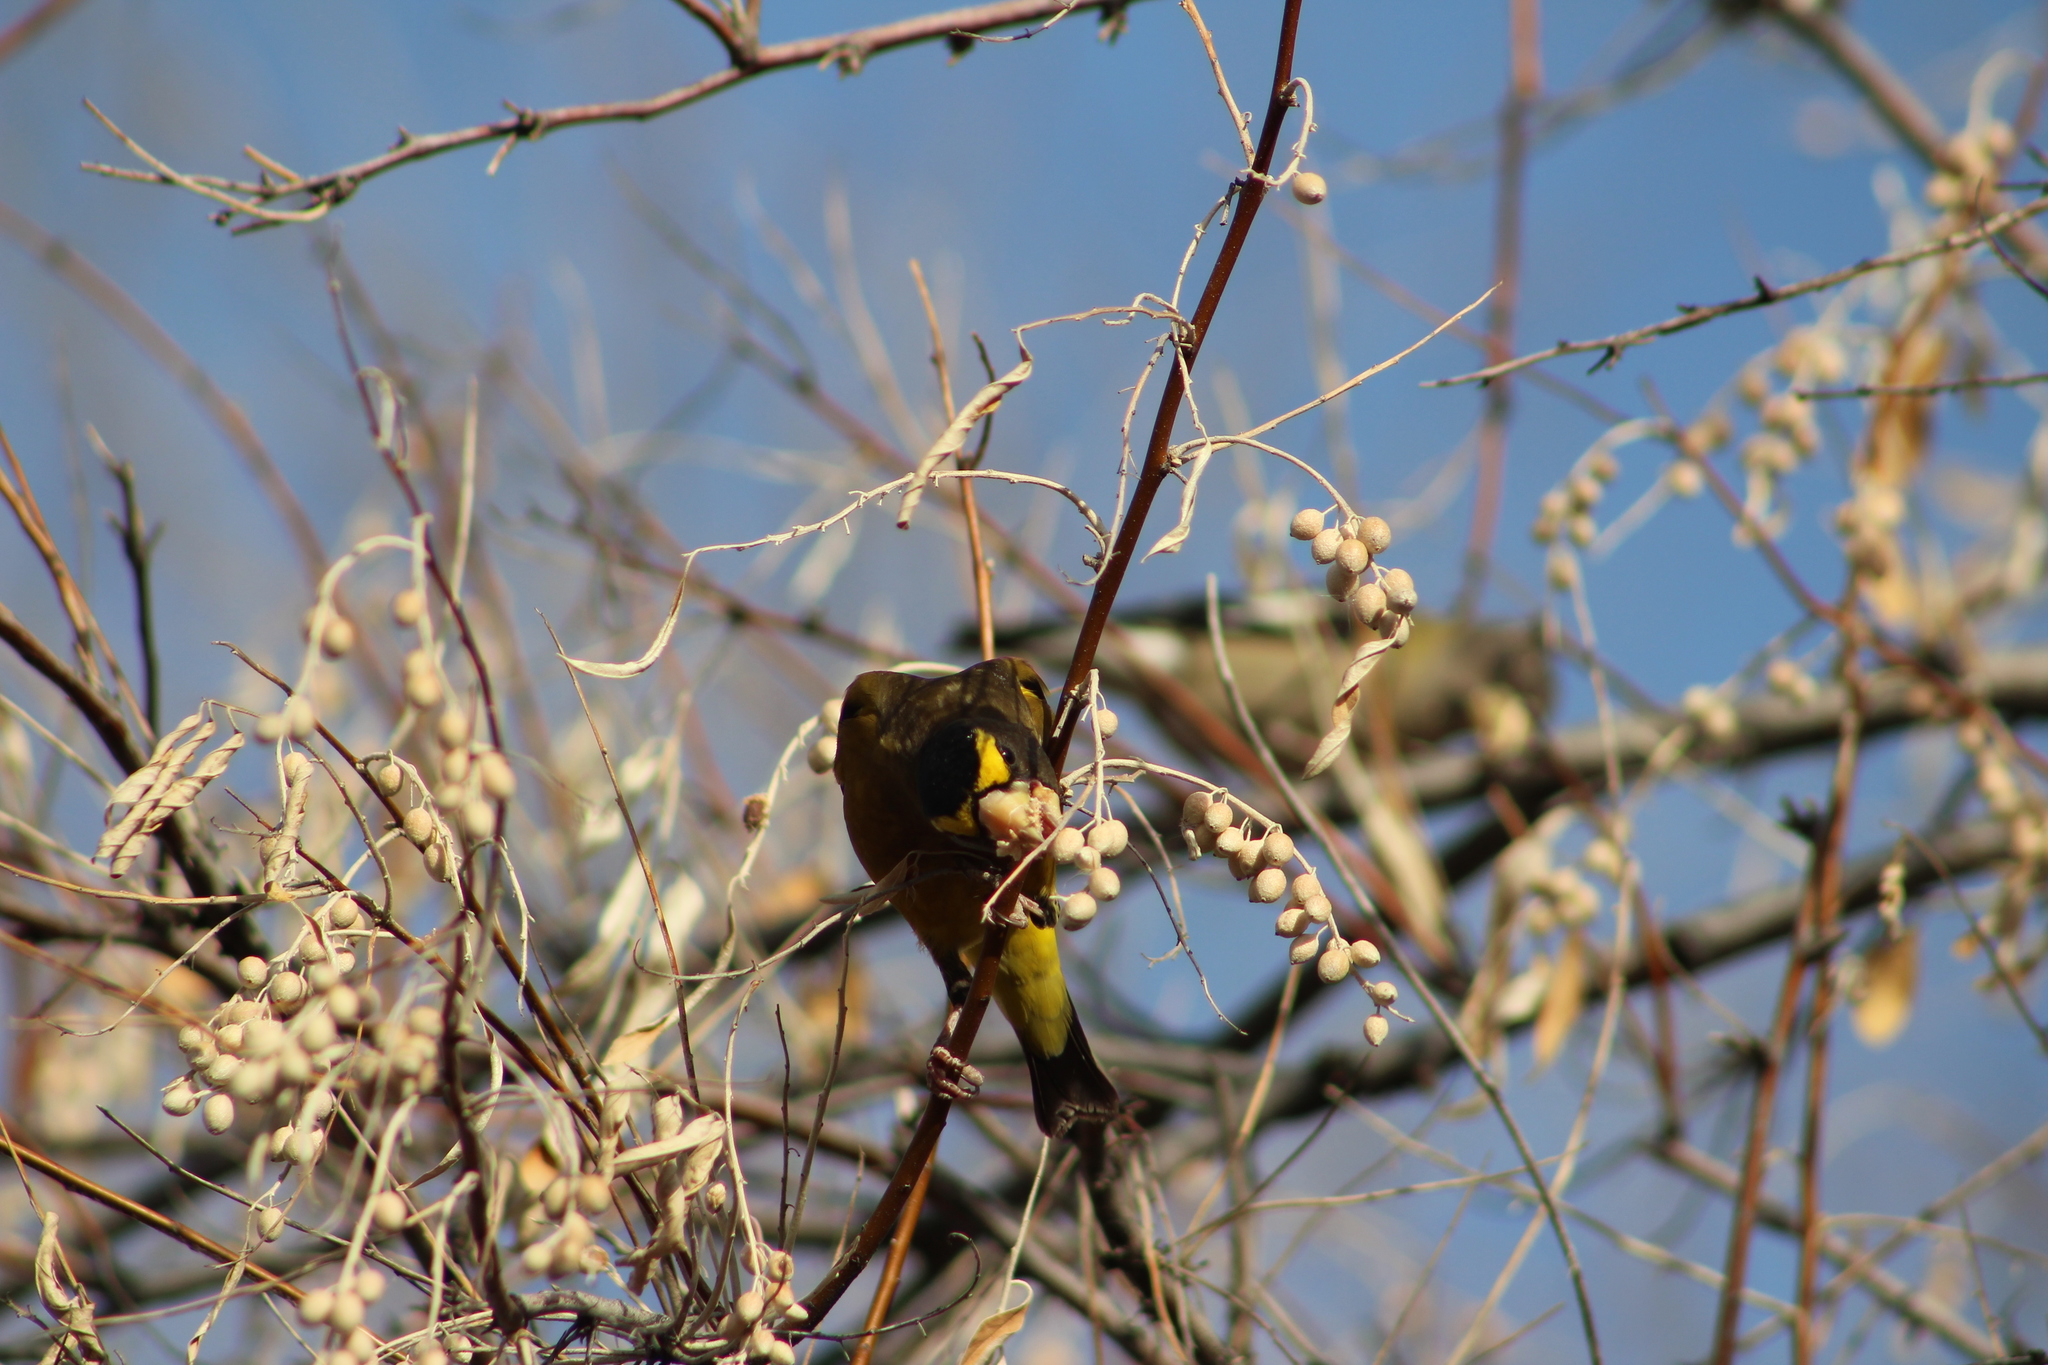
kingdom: Animalia
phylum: Chordata
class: Aves
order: Passeriformes
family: Fringillidae
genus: Hesperiphona
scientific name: Hesperiphona vespertina
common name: Evening grosbeak
